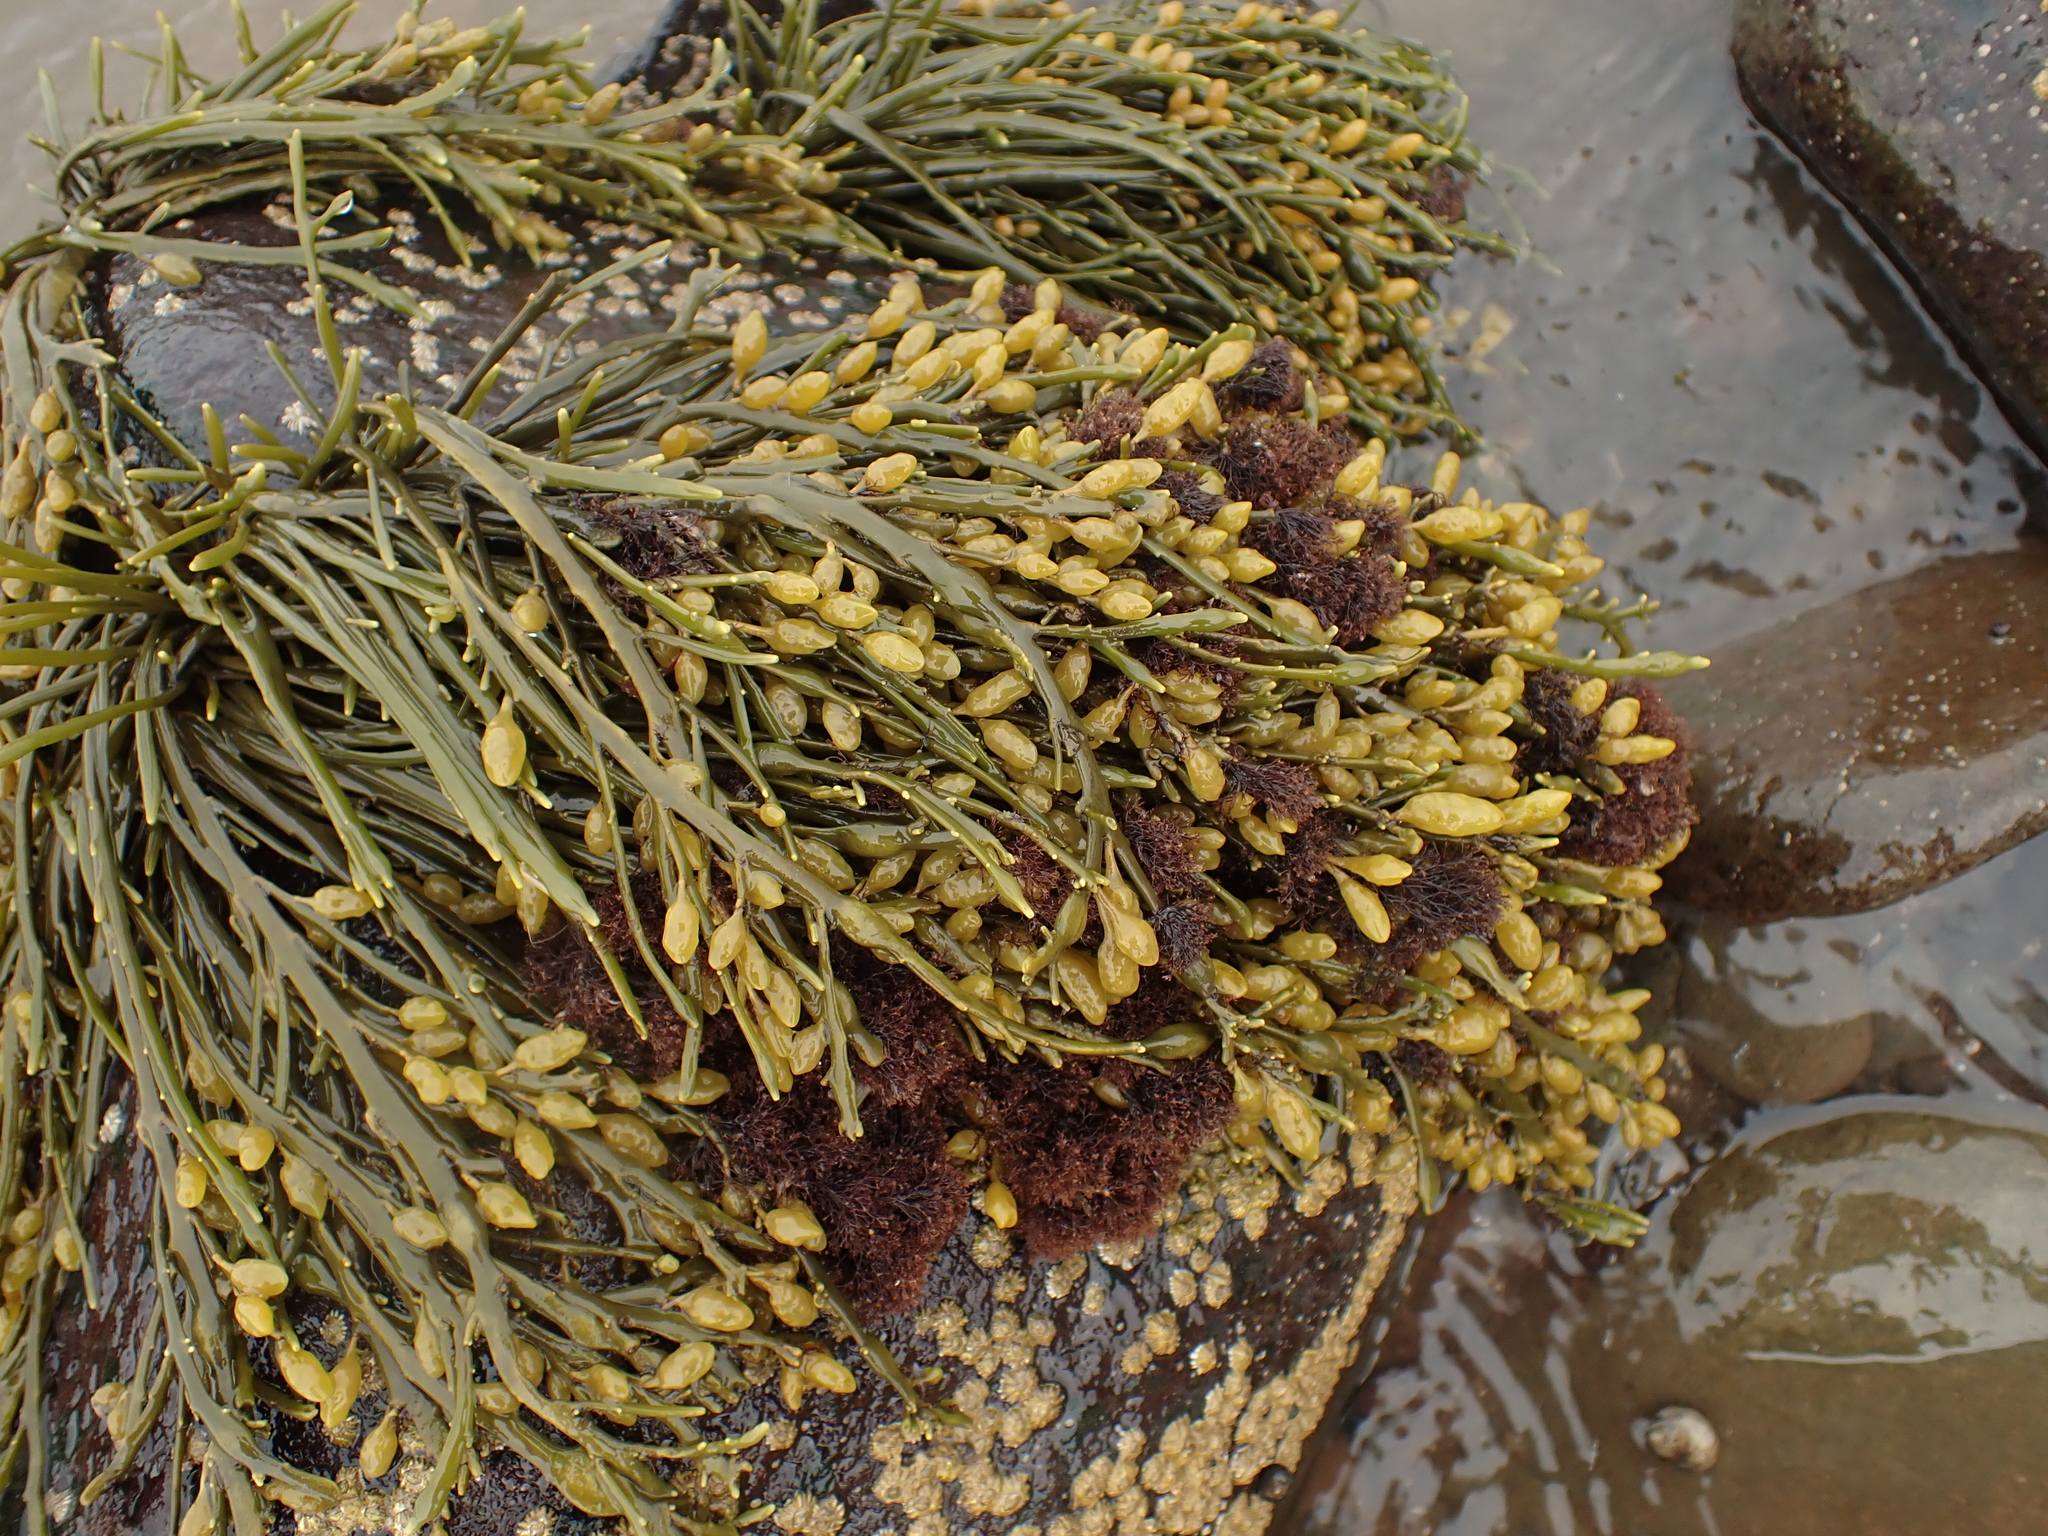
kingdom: Chromista
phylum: Ochrophyta
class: Phaeophyceae
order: Fucales
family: Fucaceae
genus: Ascophyllum
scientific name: Ascophyllum nodosum
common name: Knotted wrack
